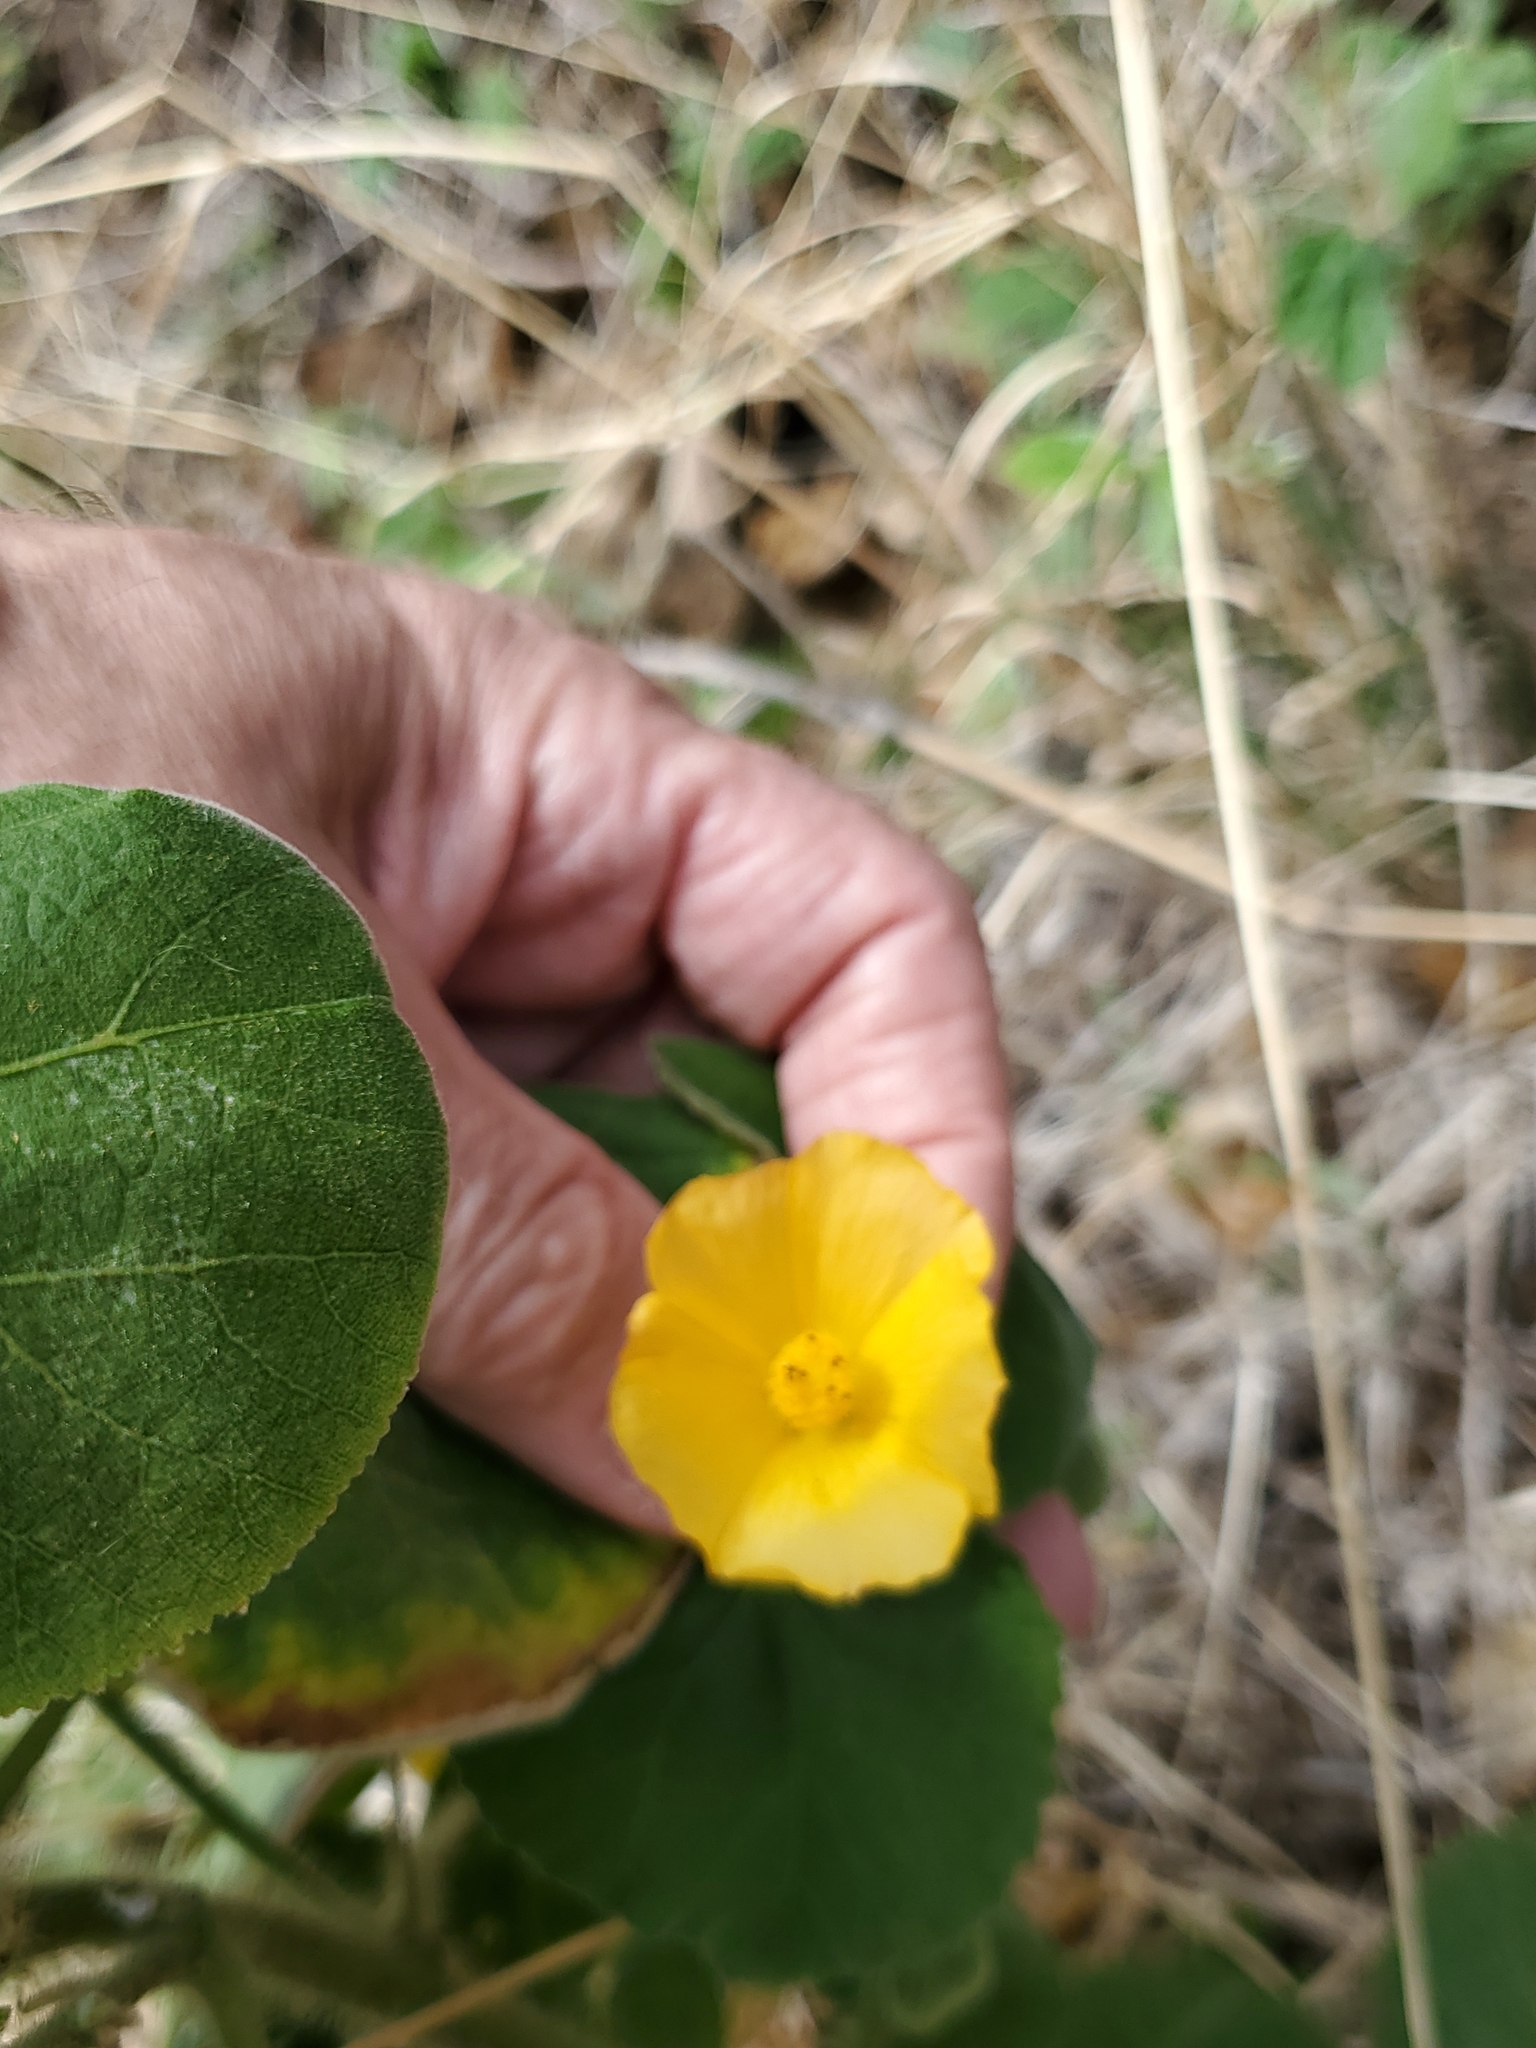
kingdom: Plantae
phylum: Tracheophyta
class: Magnoliopsida
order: Malvales
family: Malvaceae
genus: Abutilon
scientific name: Abutilon grandifolium
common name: Hairy abutilon
